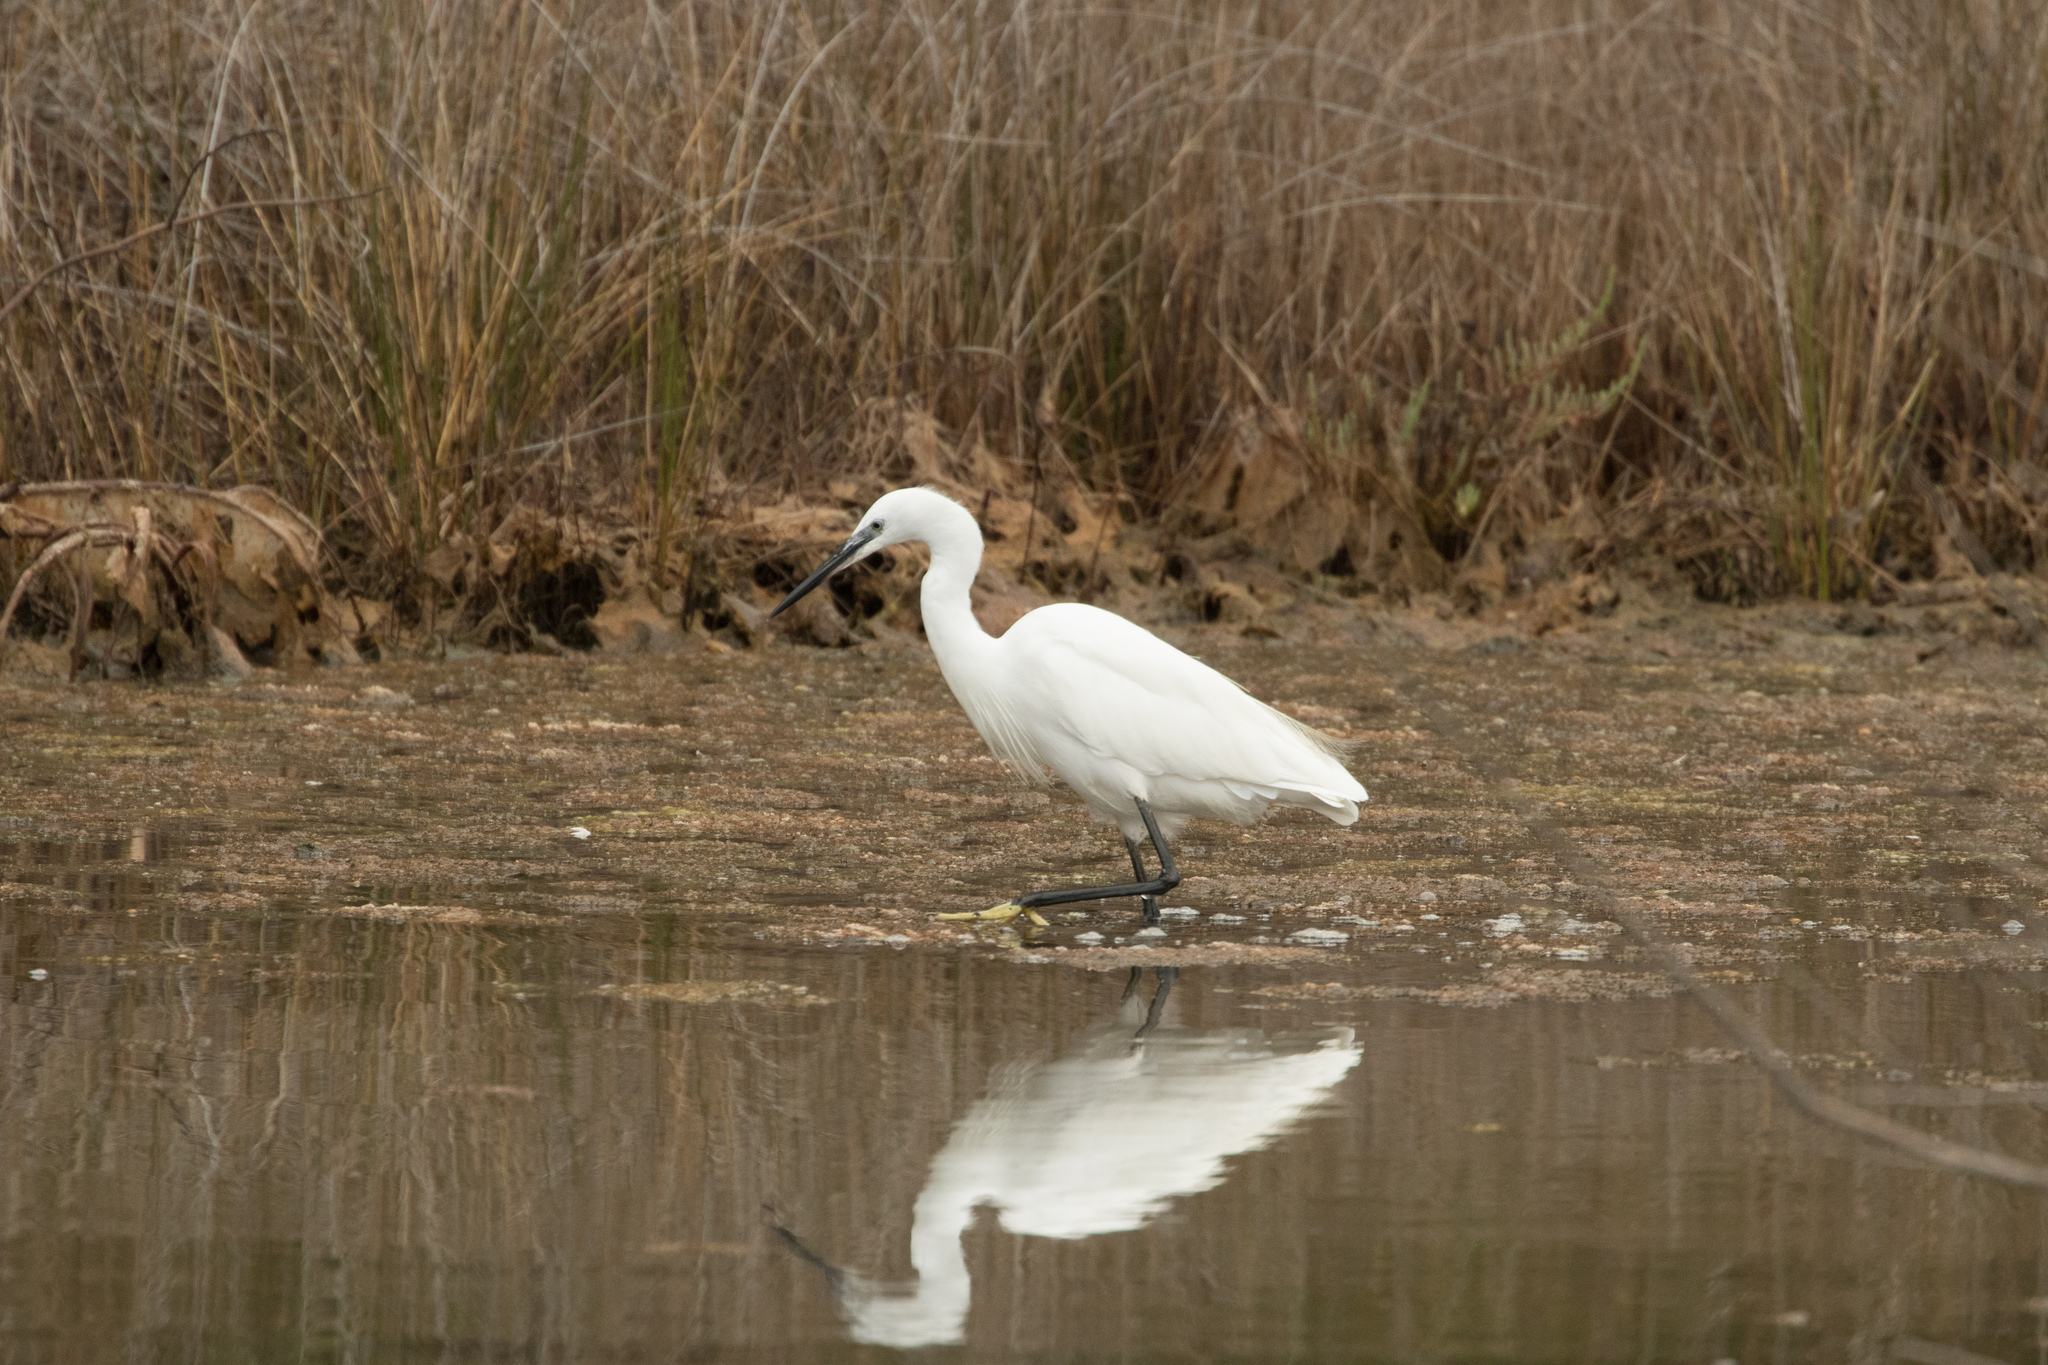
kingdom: Animalia
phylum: Chordata
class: Aves
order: Pelecaniformes
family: Ardeidae
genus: Egretta
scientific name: Egretta garzetta
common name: Little egret
